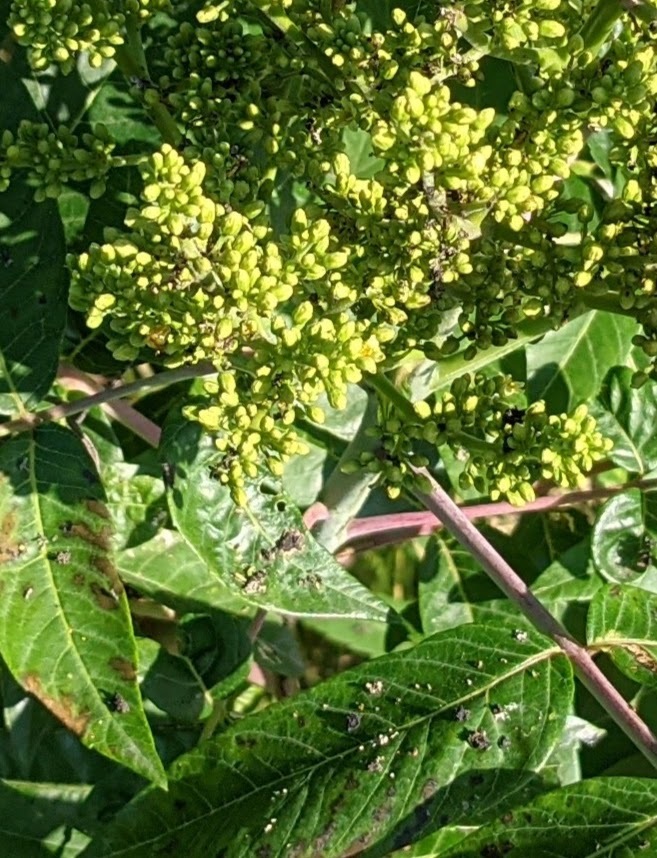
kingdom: Plantae
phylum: Tracheophyta
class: Magnoliopsida
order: Sapindales
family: Anacardiaceae
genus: Rhus
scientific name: Rhus glabra
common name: Scarlet sumac
